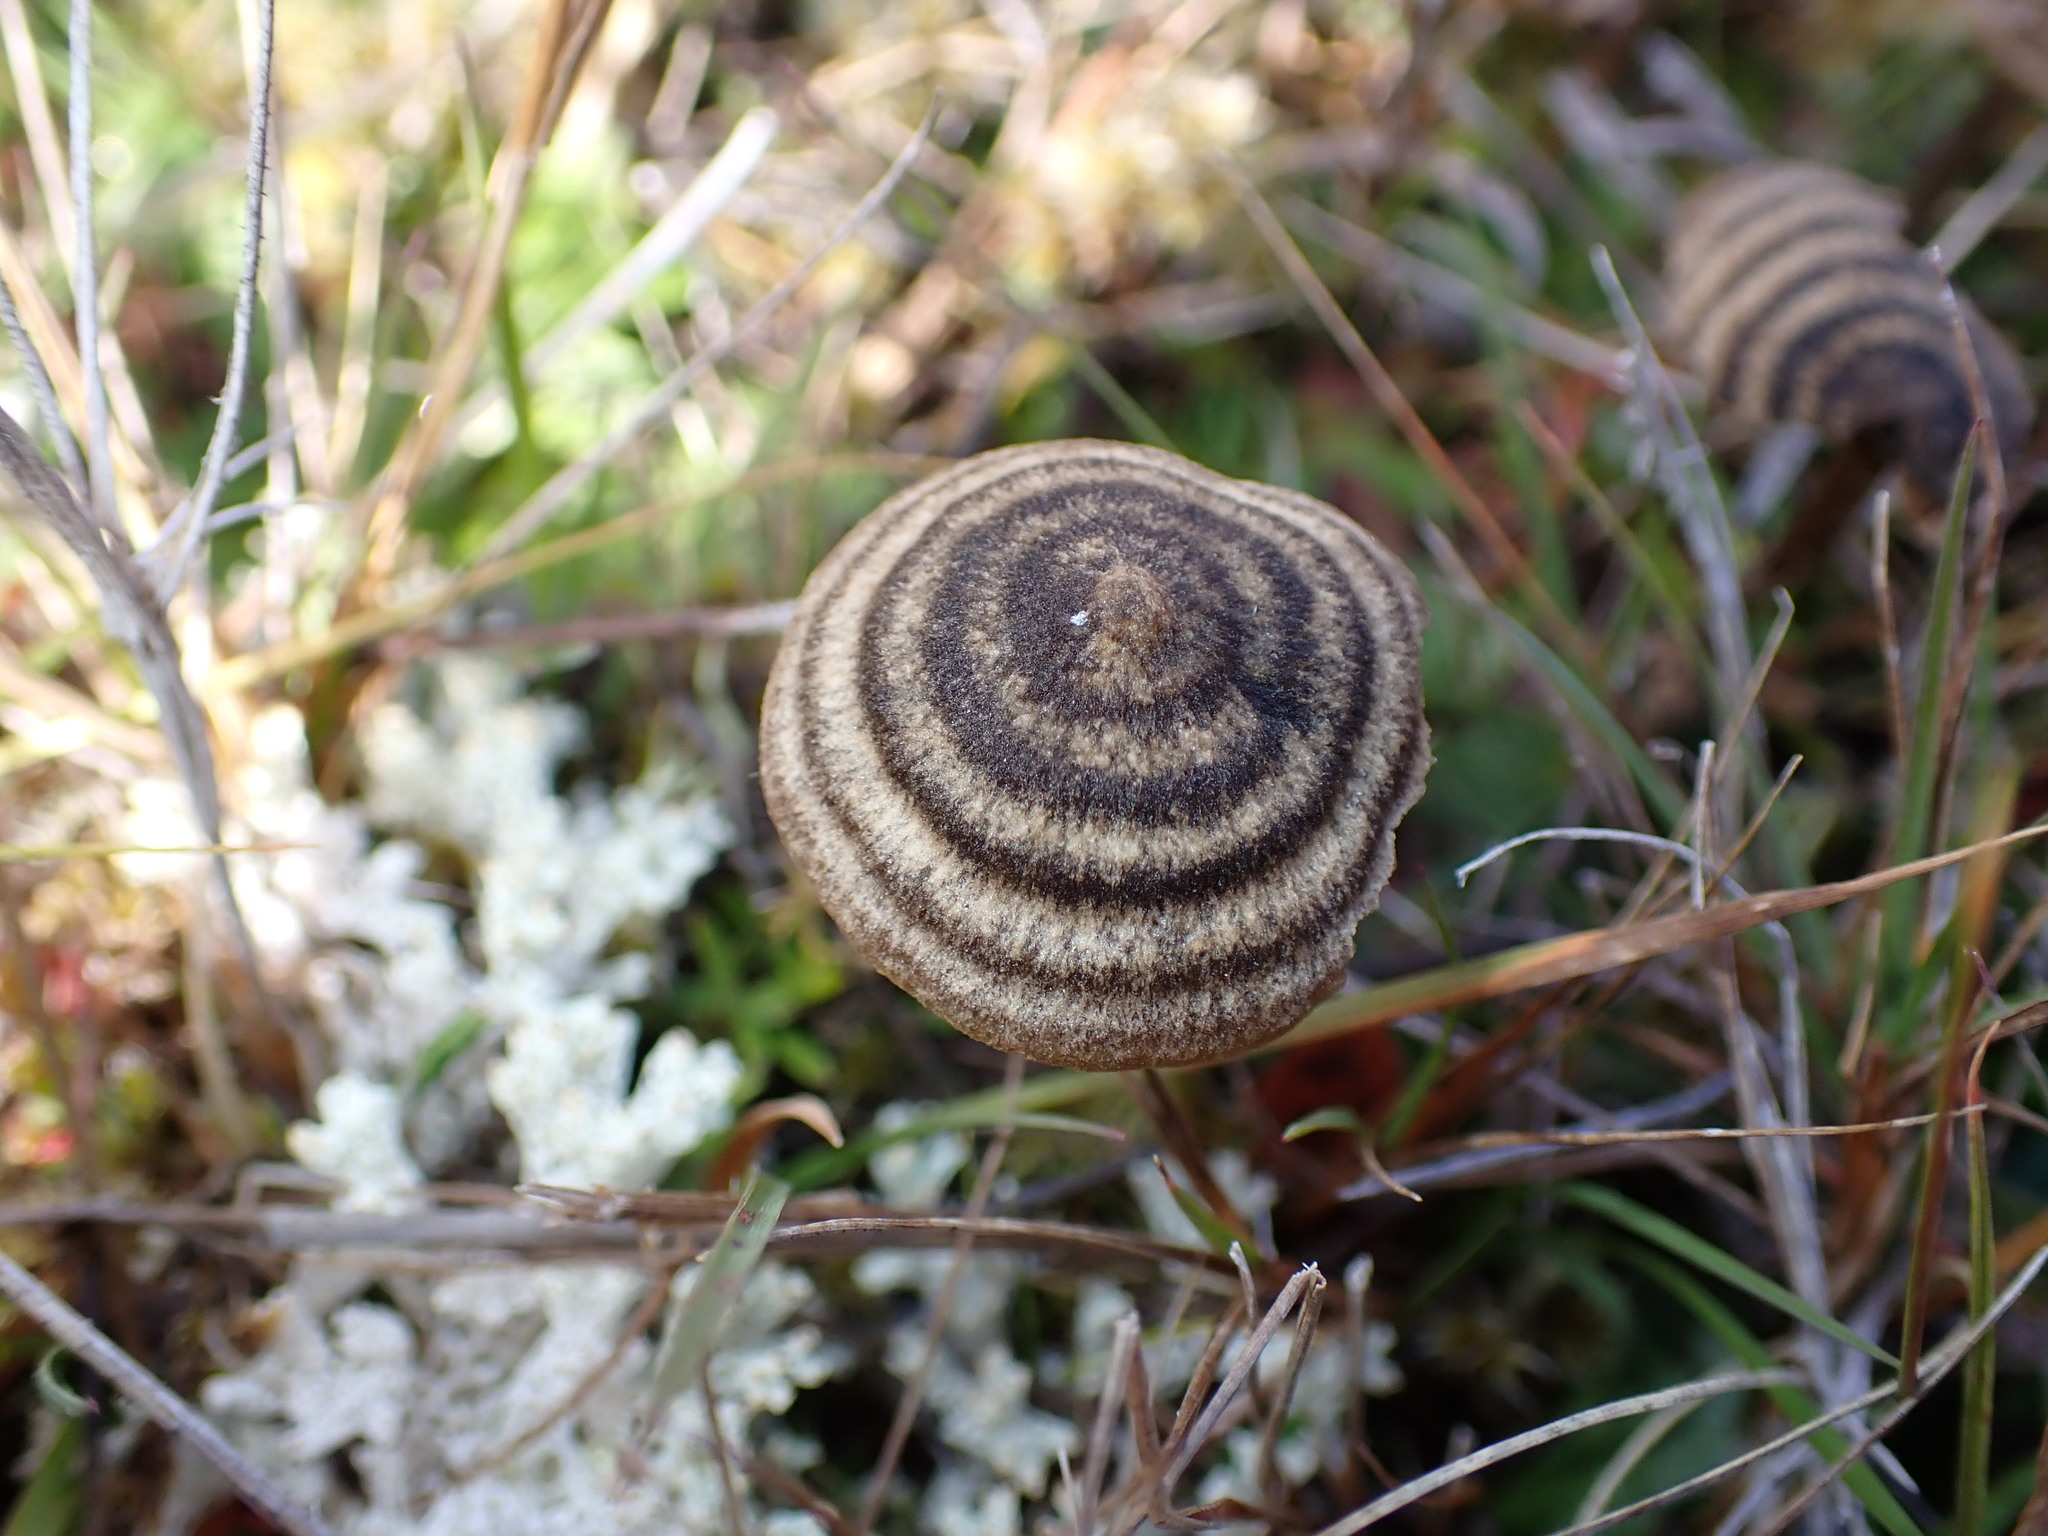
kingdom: Fungi
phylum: Basidiomycota
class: Agaricomycetes
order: Agaricales
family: Entolomataceae
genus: Entoloma
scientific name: Entoloma perzonatum
